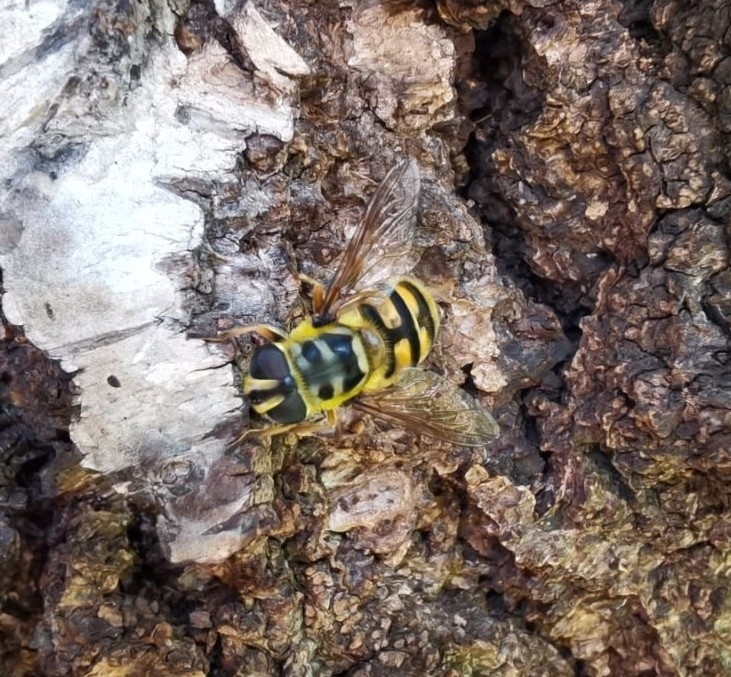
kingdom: Animalia
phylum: Arthropoda
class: Insecta
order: Diptera
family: Syrphidae
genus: Myathropa
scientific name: Myathropa florea
